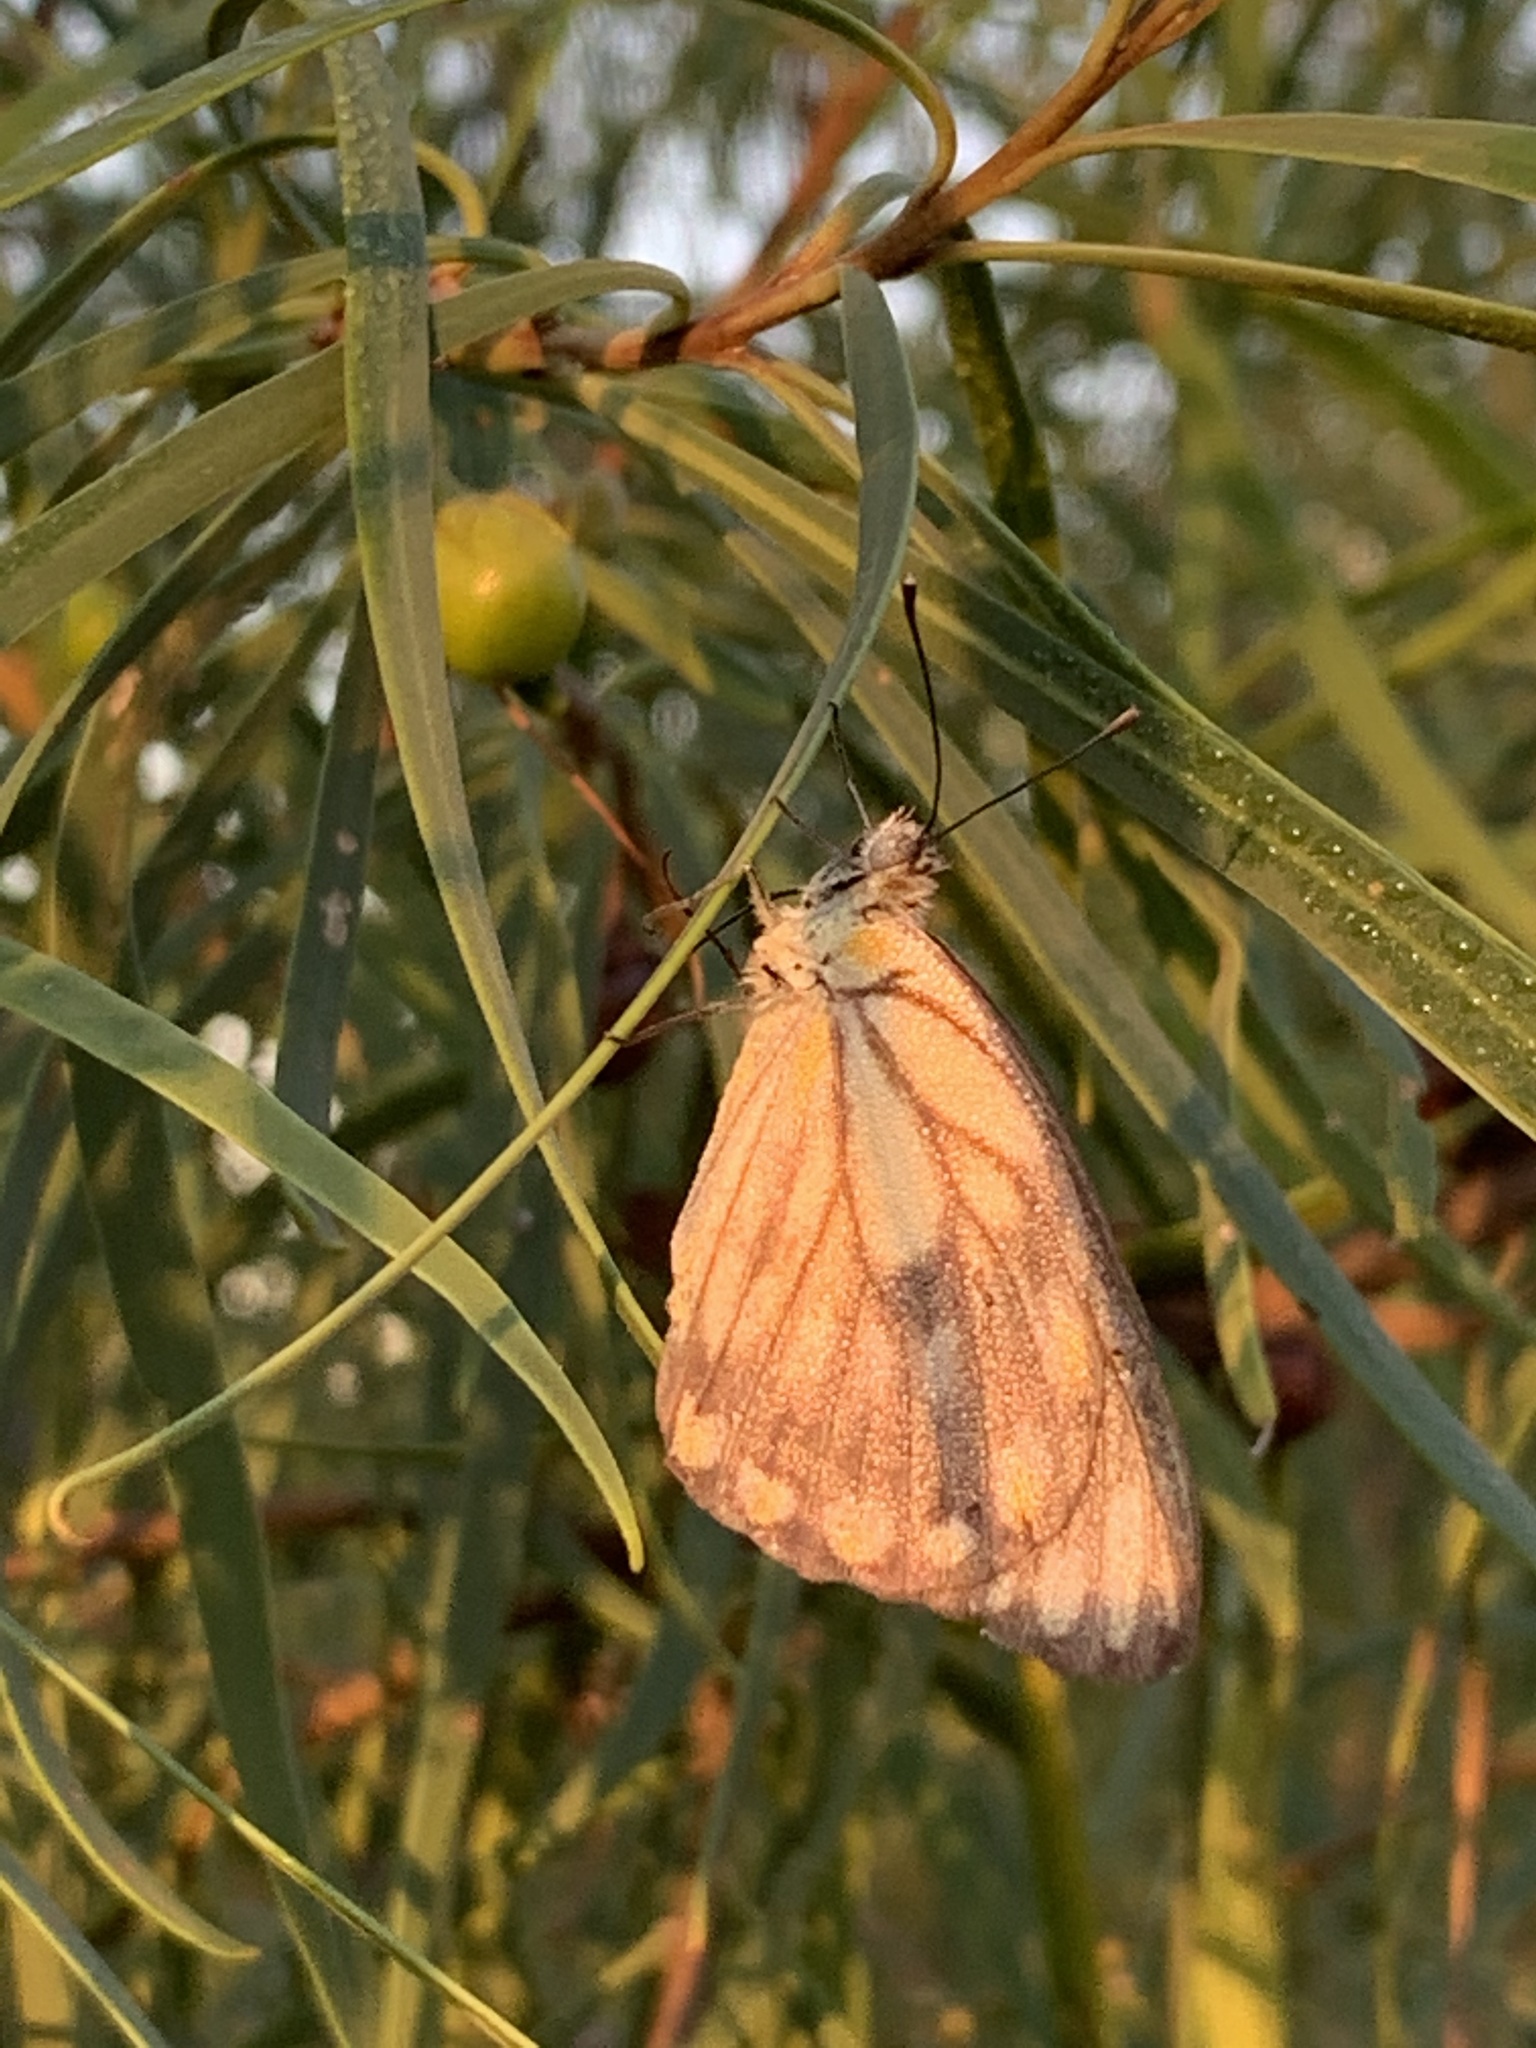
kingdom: Animalia
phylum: Arthropoda
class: Insecta
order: Lepidoptera
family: Pieridae
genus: Belenois
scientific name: Belenois java
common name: Caper white
